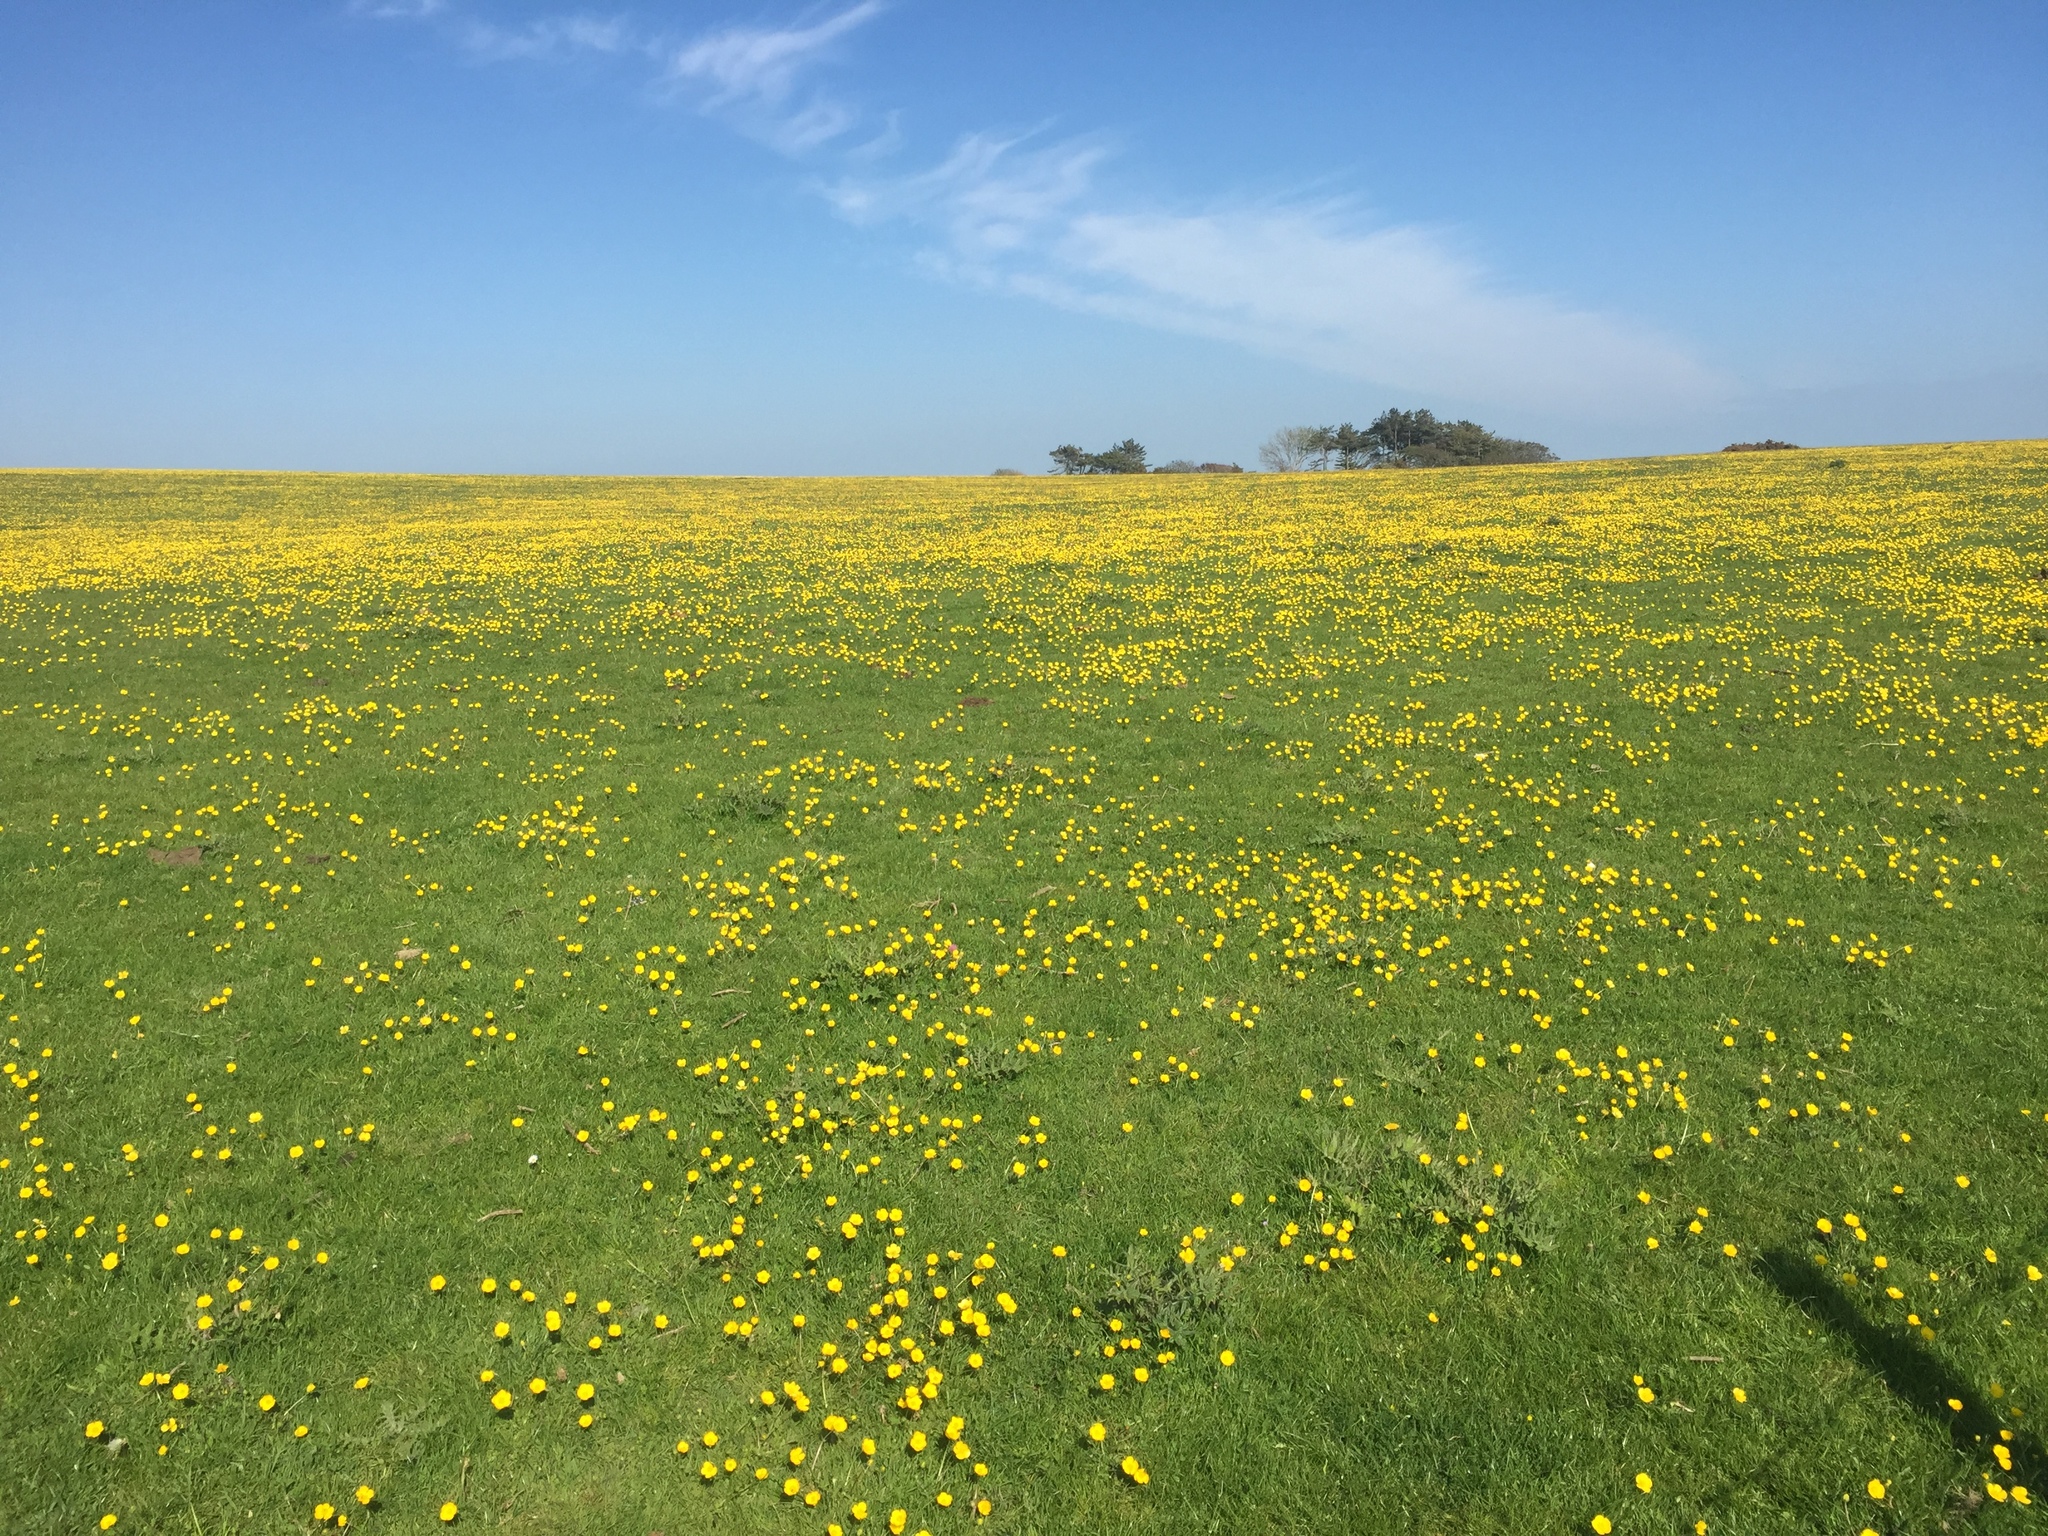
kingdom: Plantae
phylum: Tracheophyta
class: Magnoliopsida
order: Ranunculales
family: Ranunculaceae
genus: Ranunculus
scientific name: Ranunculus acris
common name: Meadow buttercup
